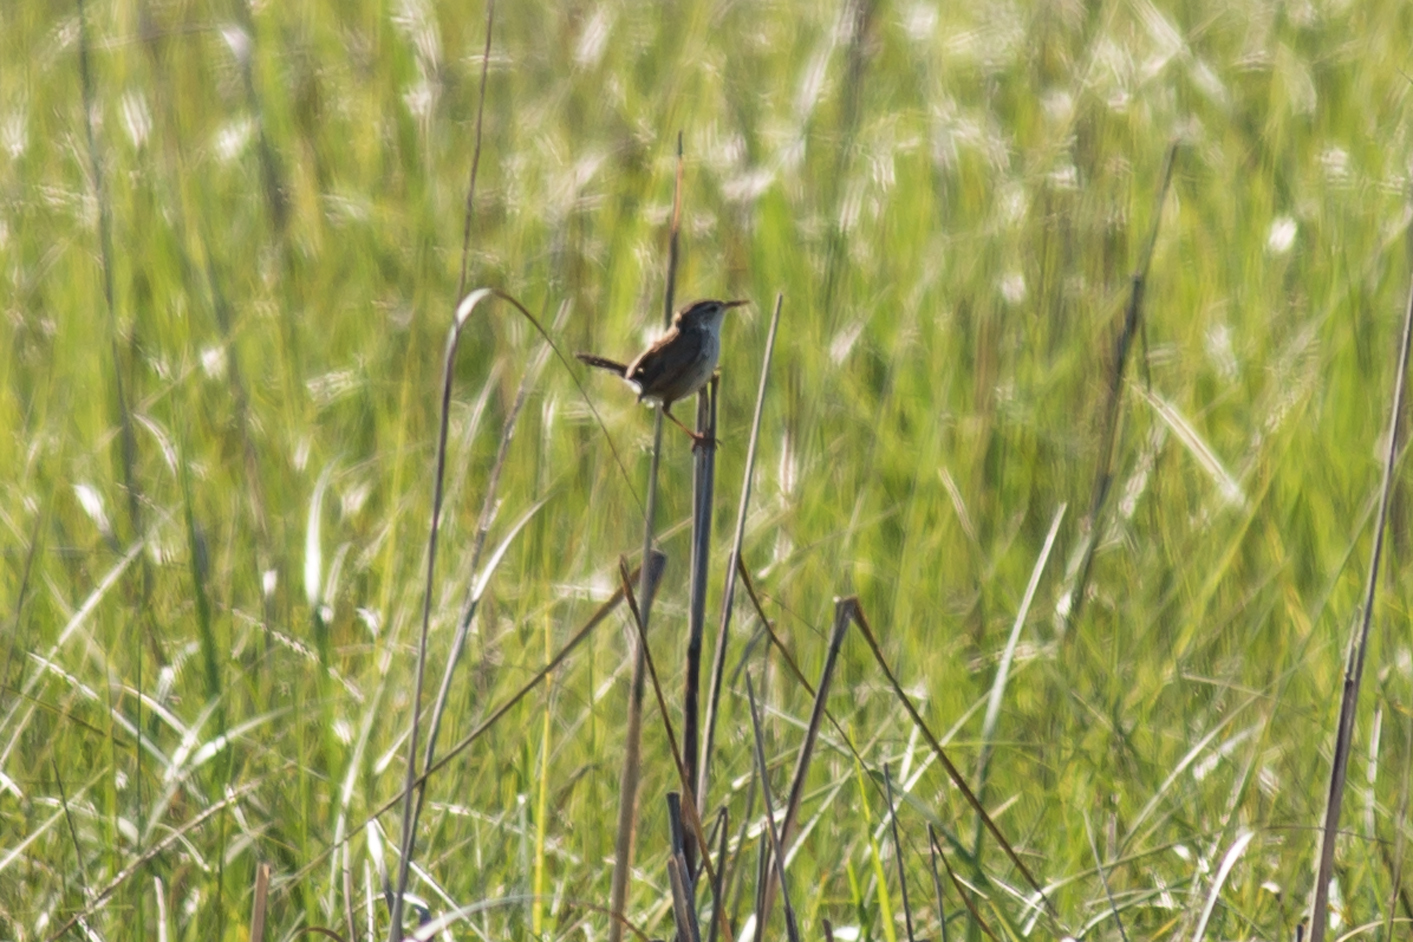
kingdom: Animalia
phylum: Chordata
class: Aves
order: Passeriformes
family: Troglodytidae
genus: Cistothorus
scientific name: Cistothorus palustris
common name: Marsh wren
